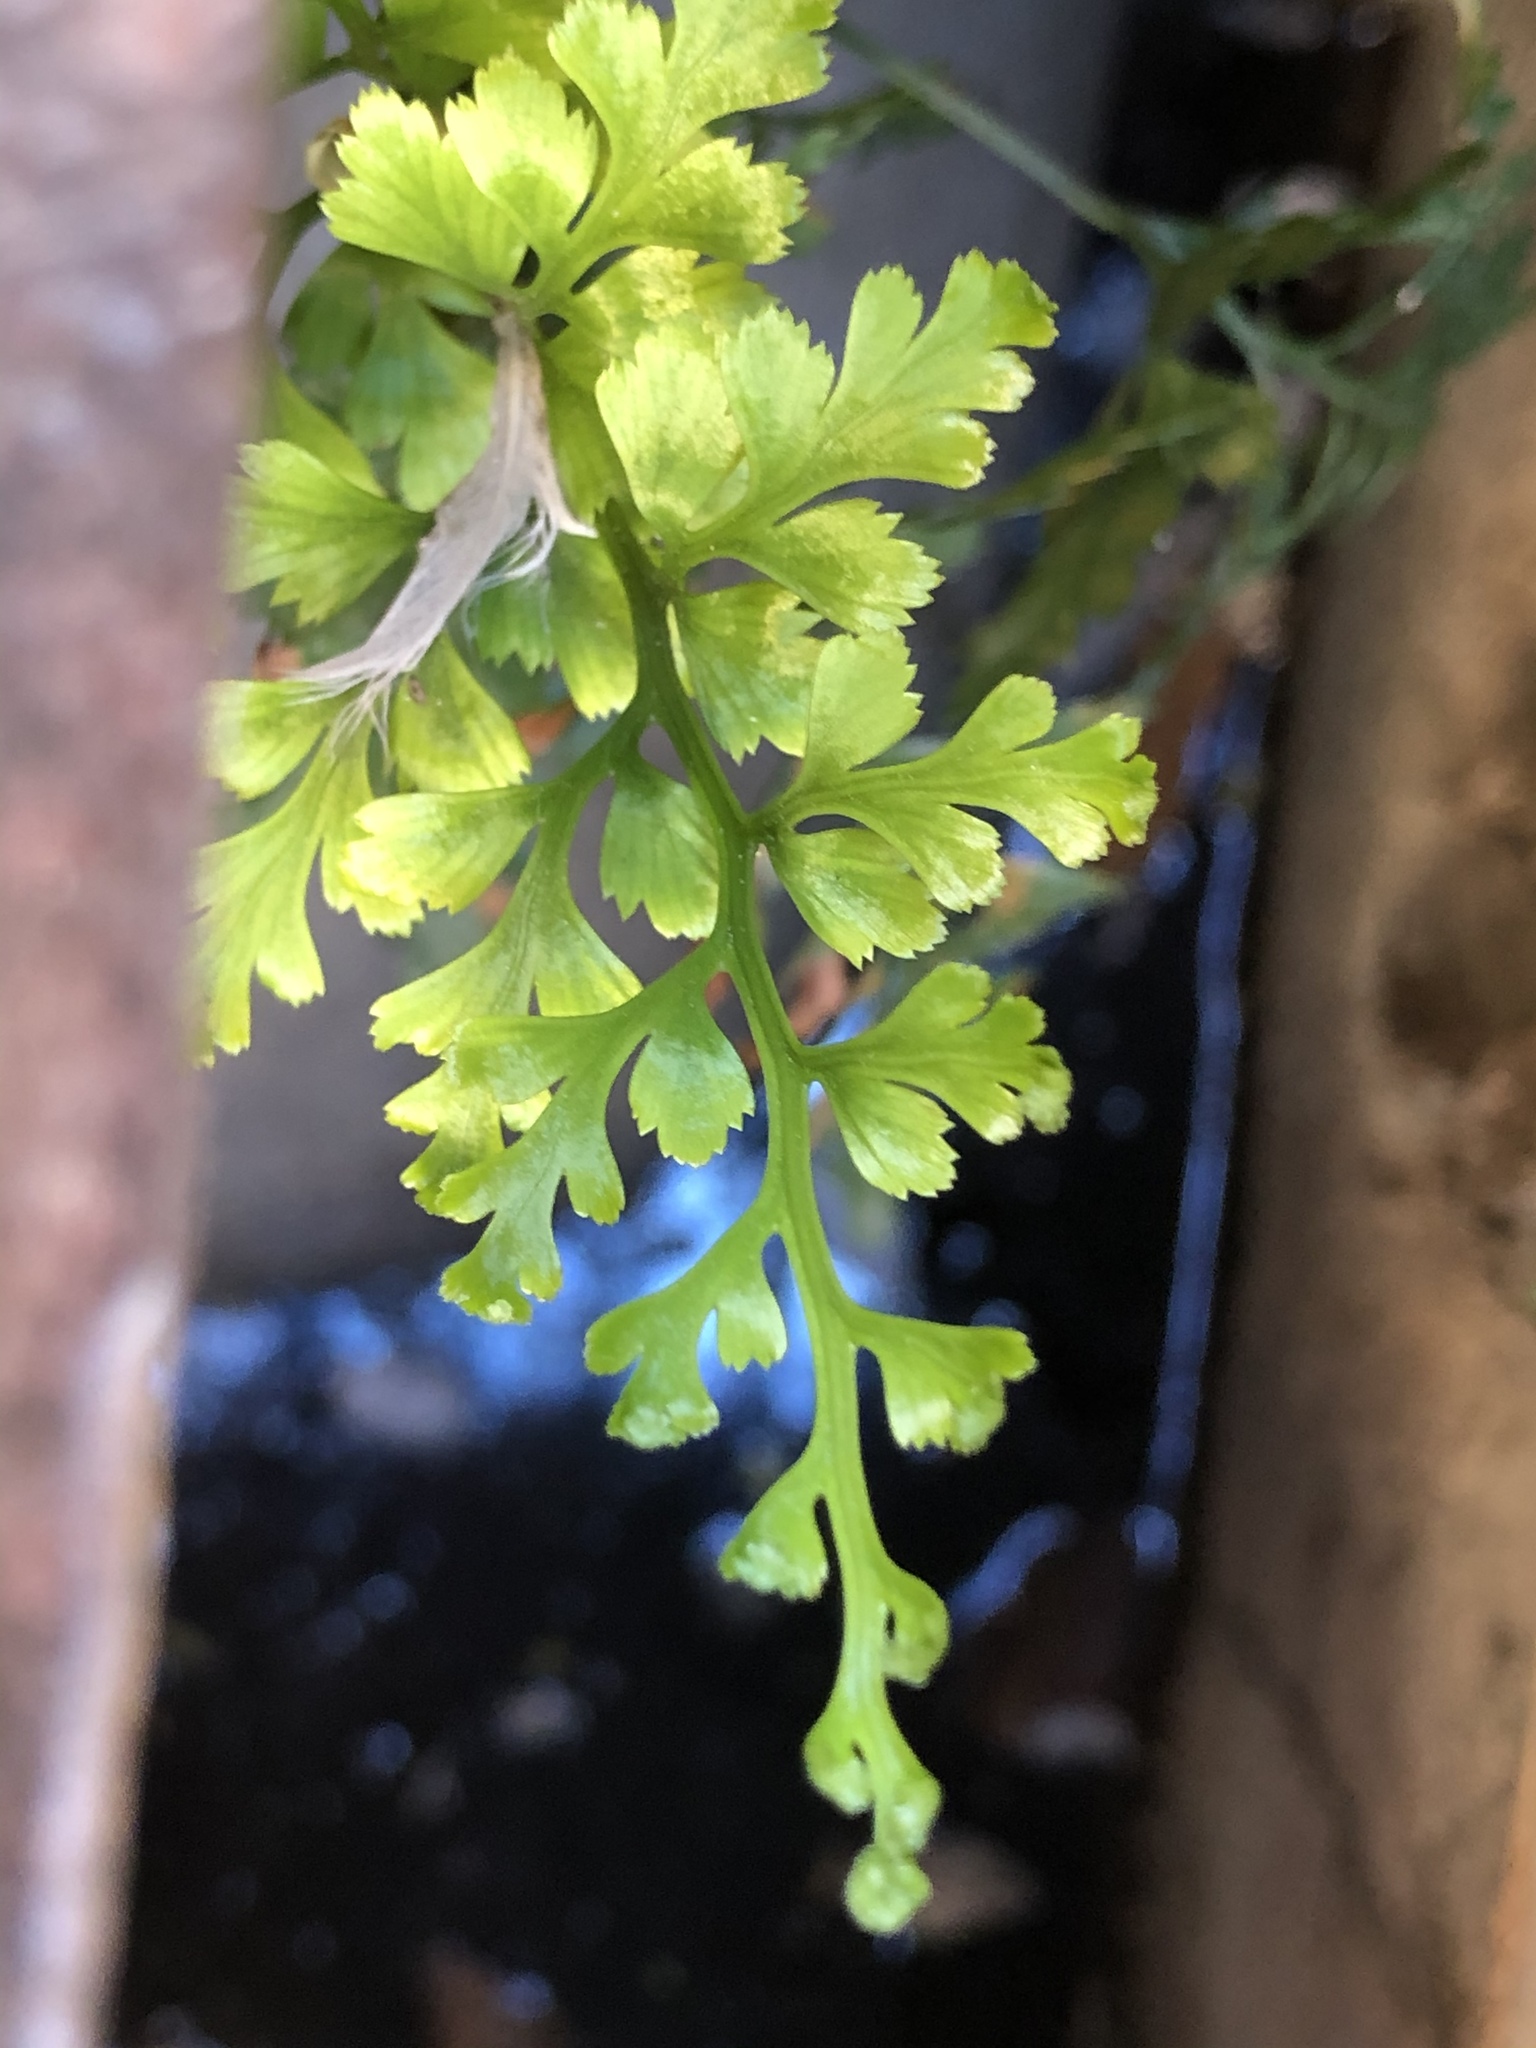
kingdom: Plantae
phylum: Tracheophyta
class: Polypodiopsida
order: Polypodiales
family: Aspleniaceae
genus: Asplenium
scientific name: Asplenium ruta-muraria
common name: Wall-rue
